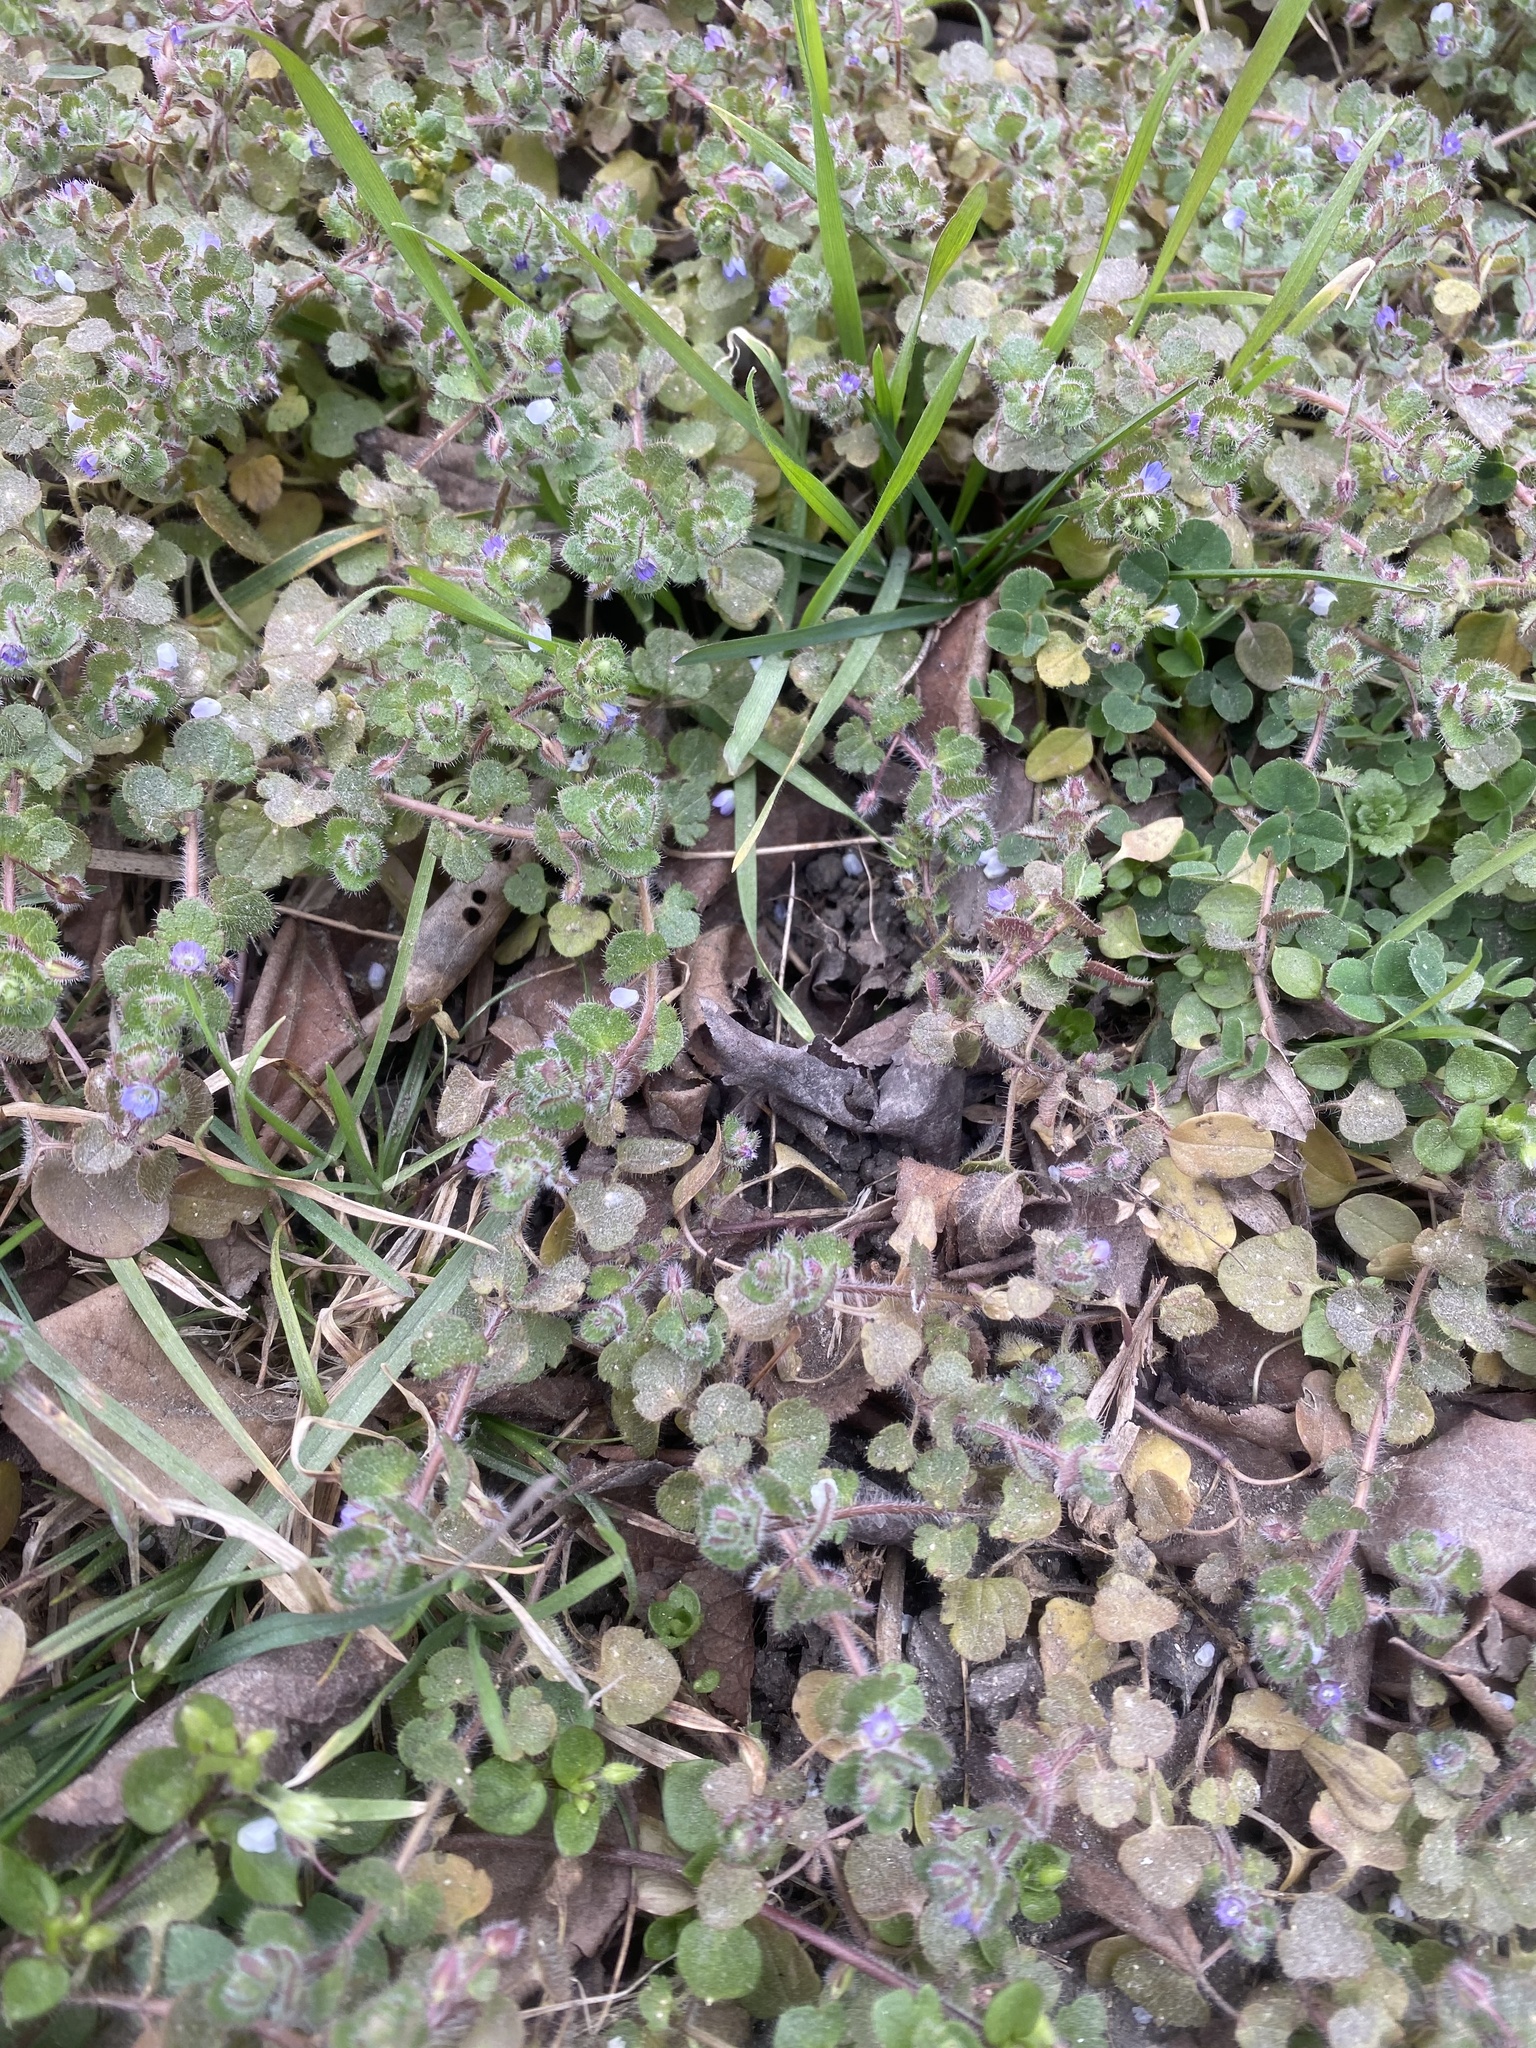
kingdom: Plantae
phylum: Tracheophyta
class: Magnoliopsida
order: Lamiales
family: Plantaginaceae
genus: Veronica
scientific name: Veronica hederifolia
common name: Ivy-leaved speedwell
